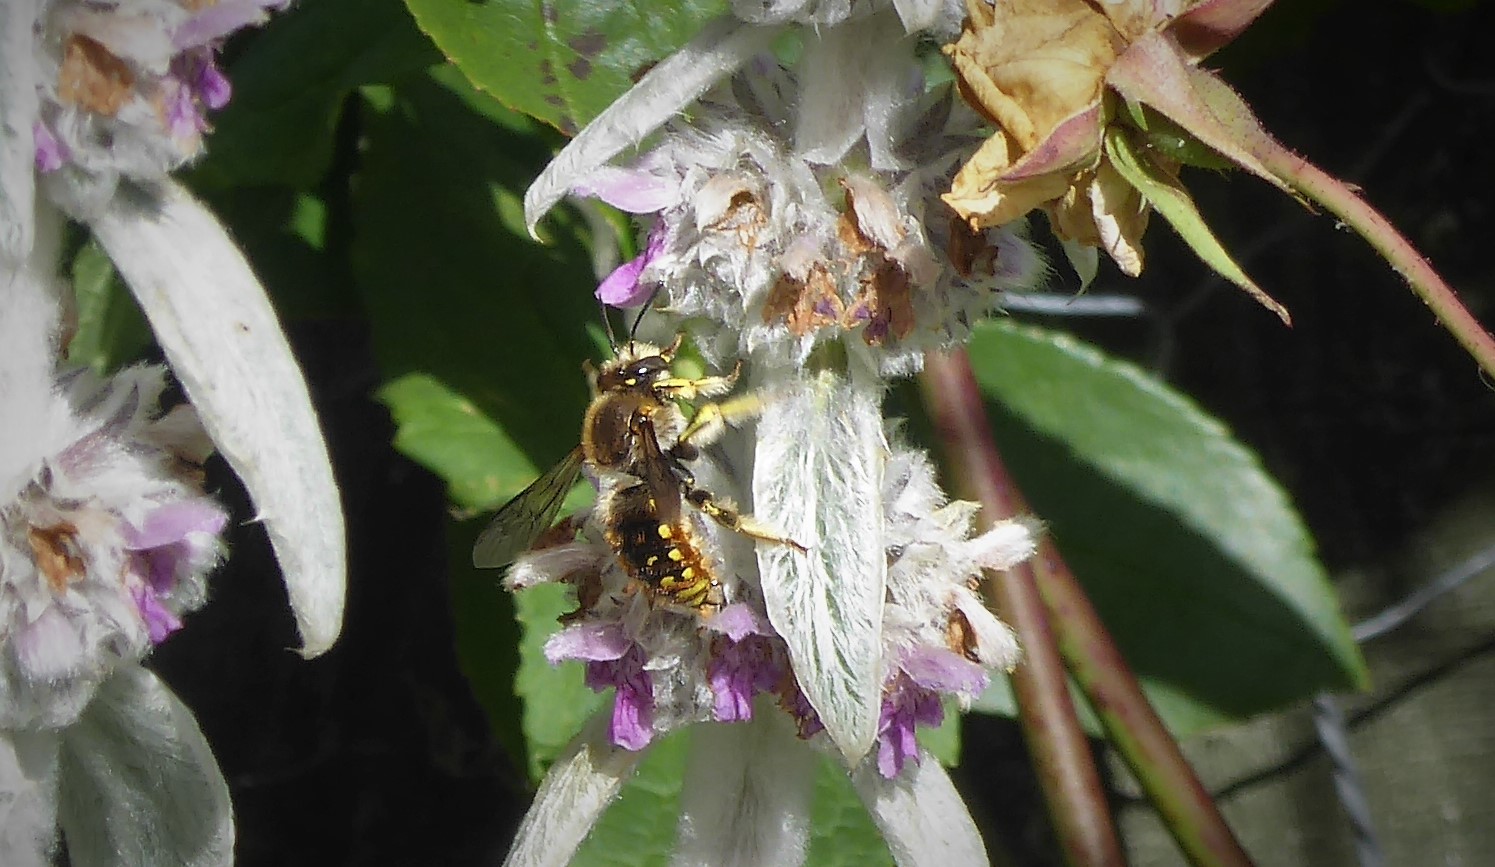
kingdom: Animalia
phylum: Arthropoda
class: Insecta
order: Hymenoptera
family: Megachilidae
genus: Anthidium
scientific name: Anthidium manicatum
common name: Wool carder bee
